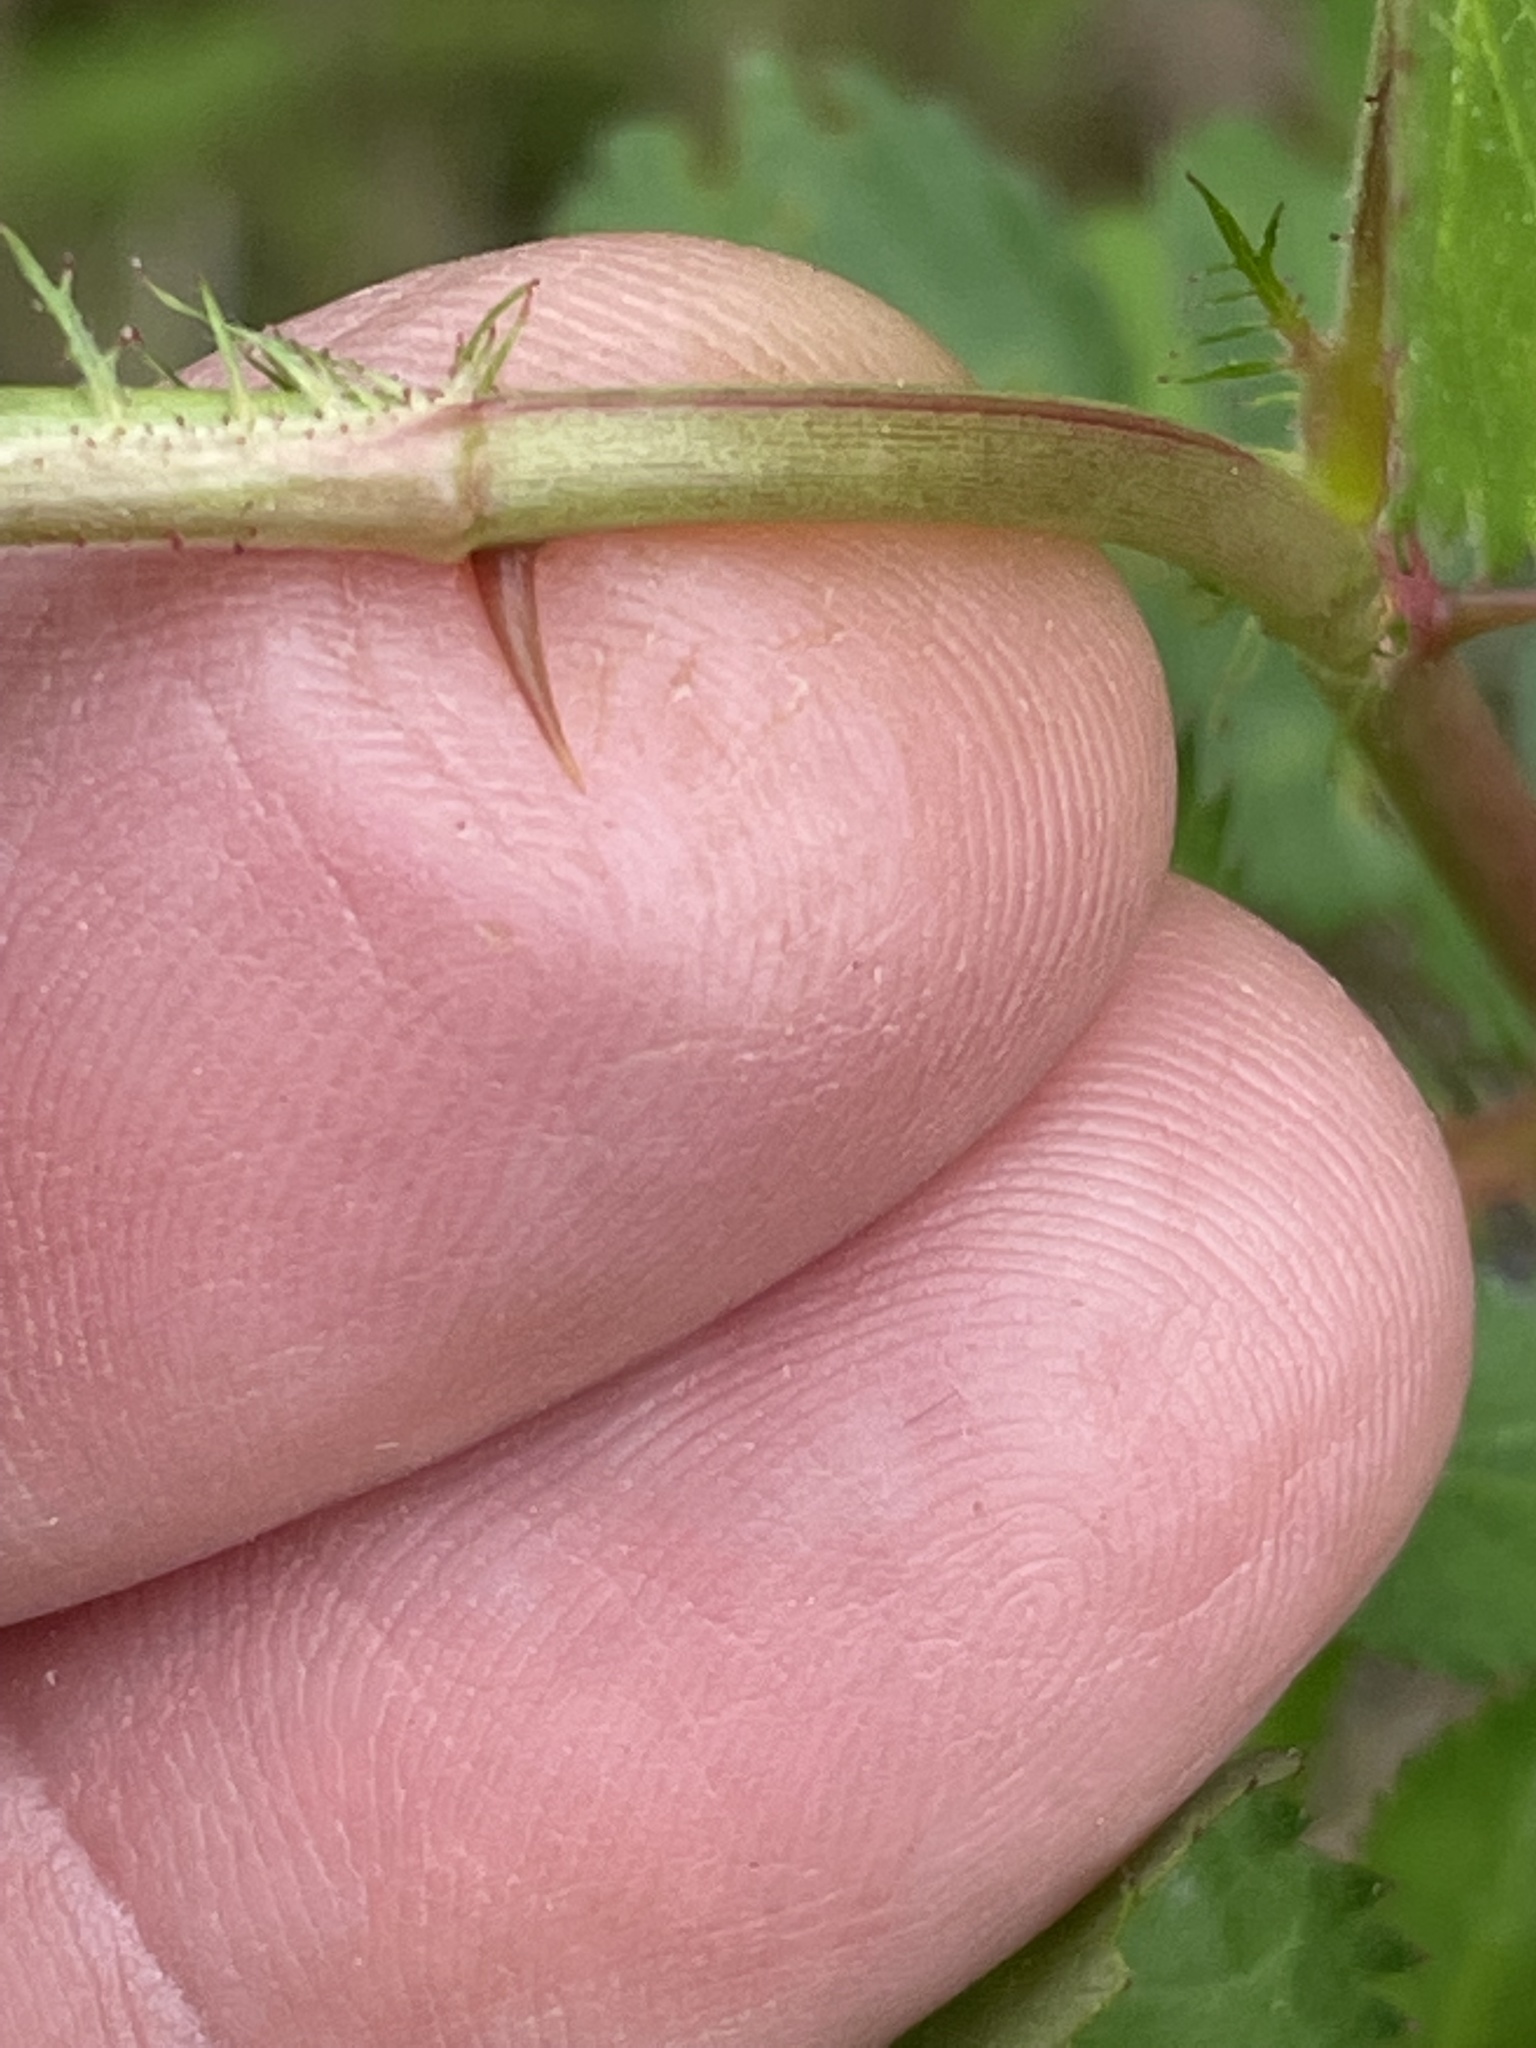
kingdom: Plantae
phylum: Tracheophyta
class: Magnoliopsida
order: Rosales
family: Rosaceae
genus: Rosa
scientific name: Rosa multiflora
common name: Multiflora rose
